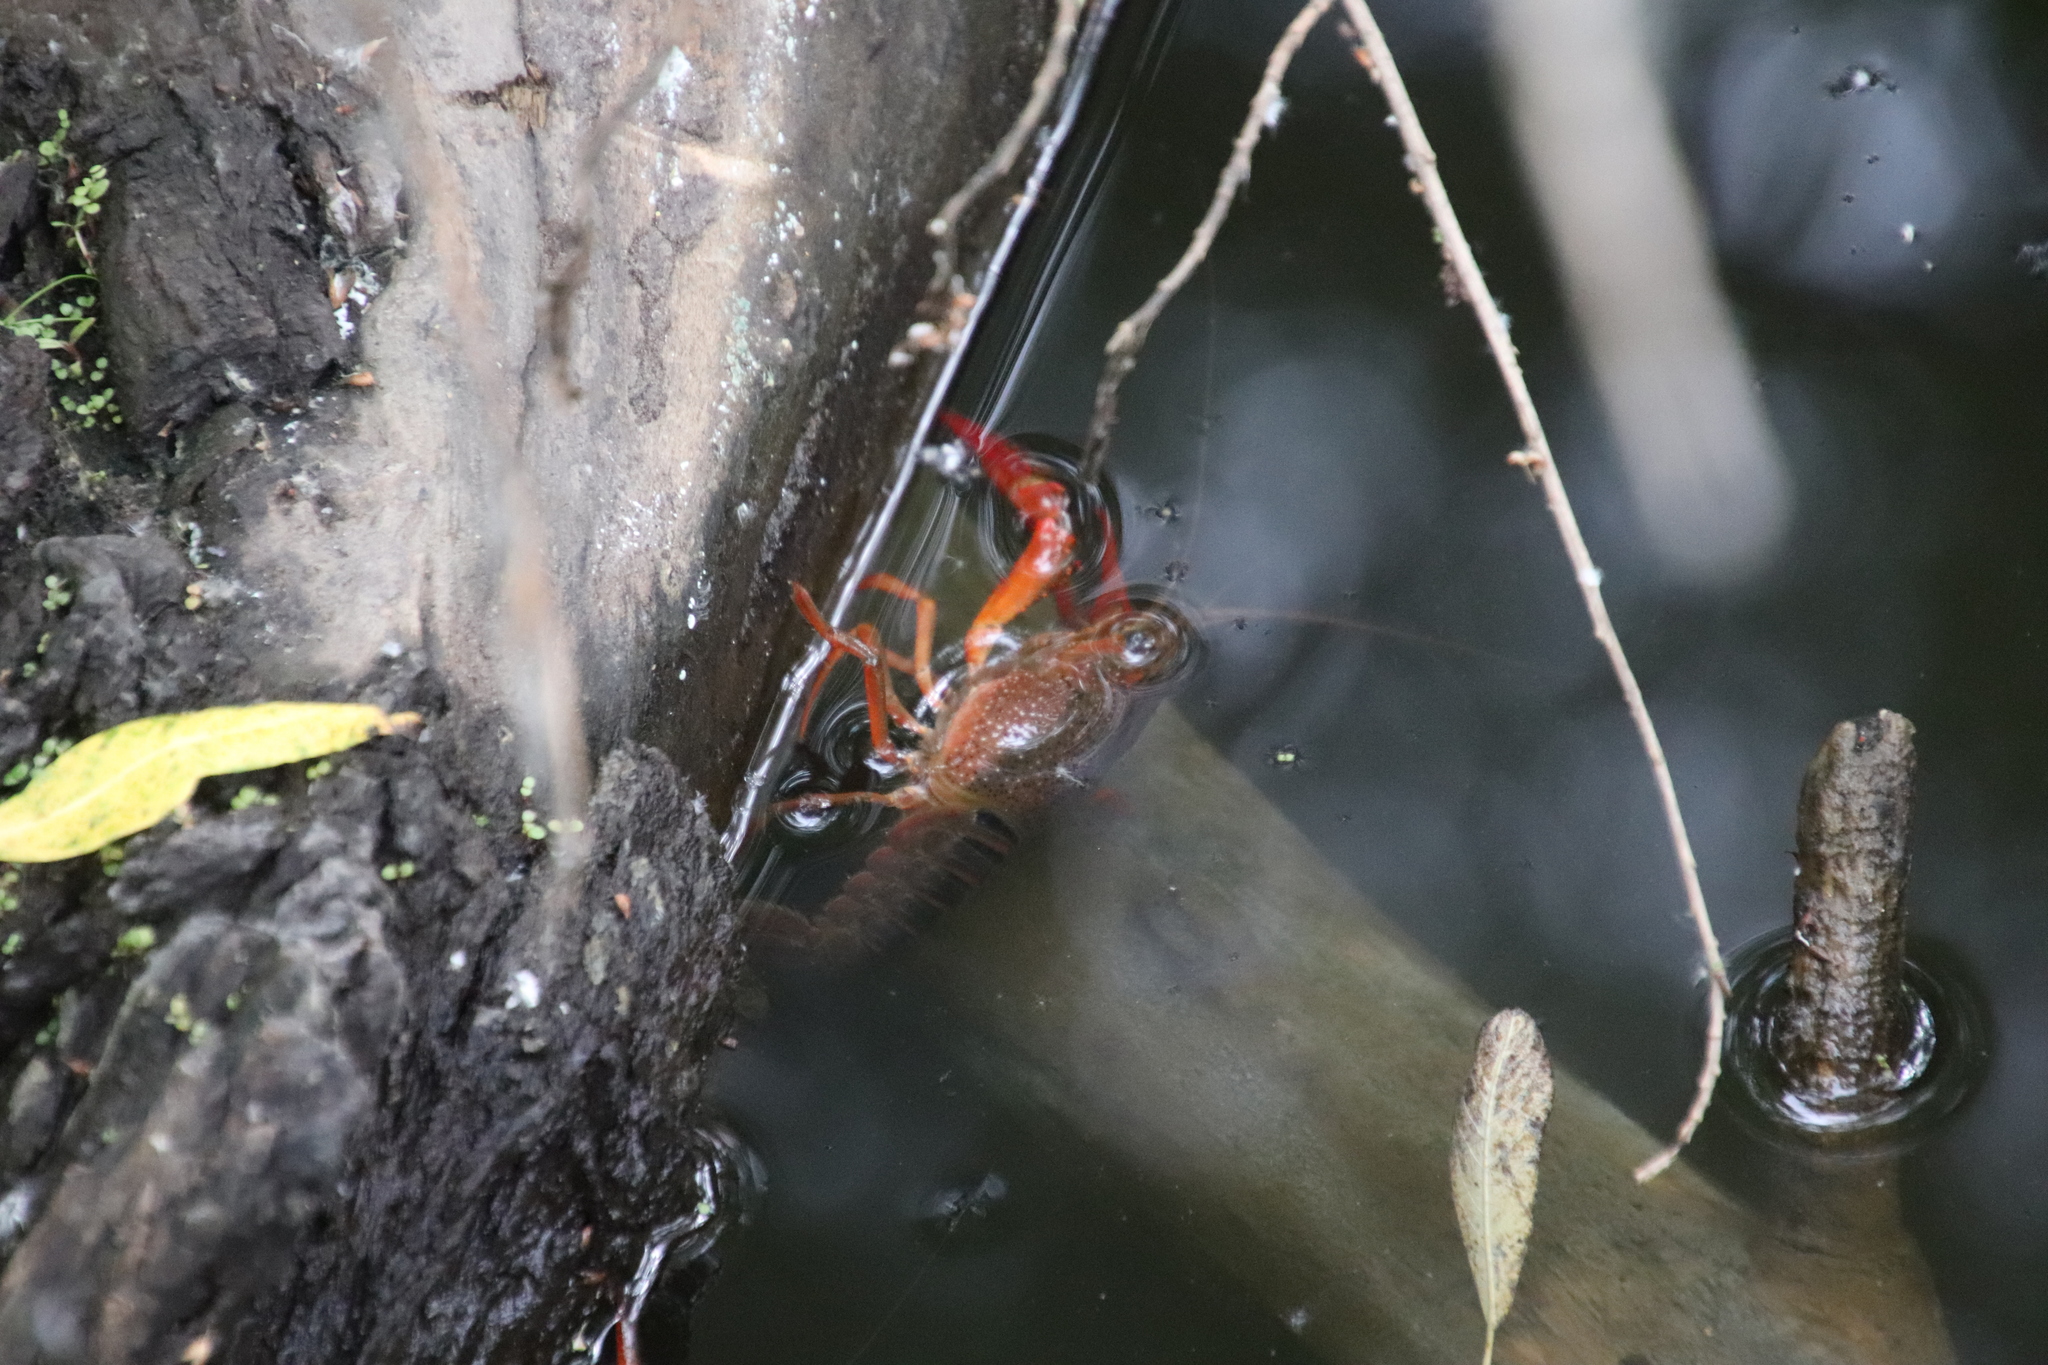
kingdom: Animalia
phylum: Arthropoda
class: Malacostraca
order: Decapoda
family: Cambaridae
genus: Procambarus
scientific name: Procambarus clarkii
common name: Red swamp crayfish
